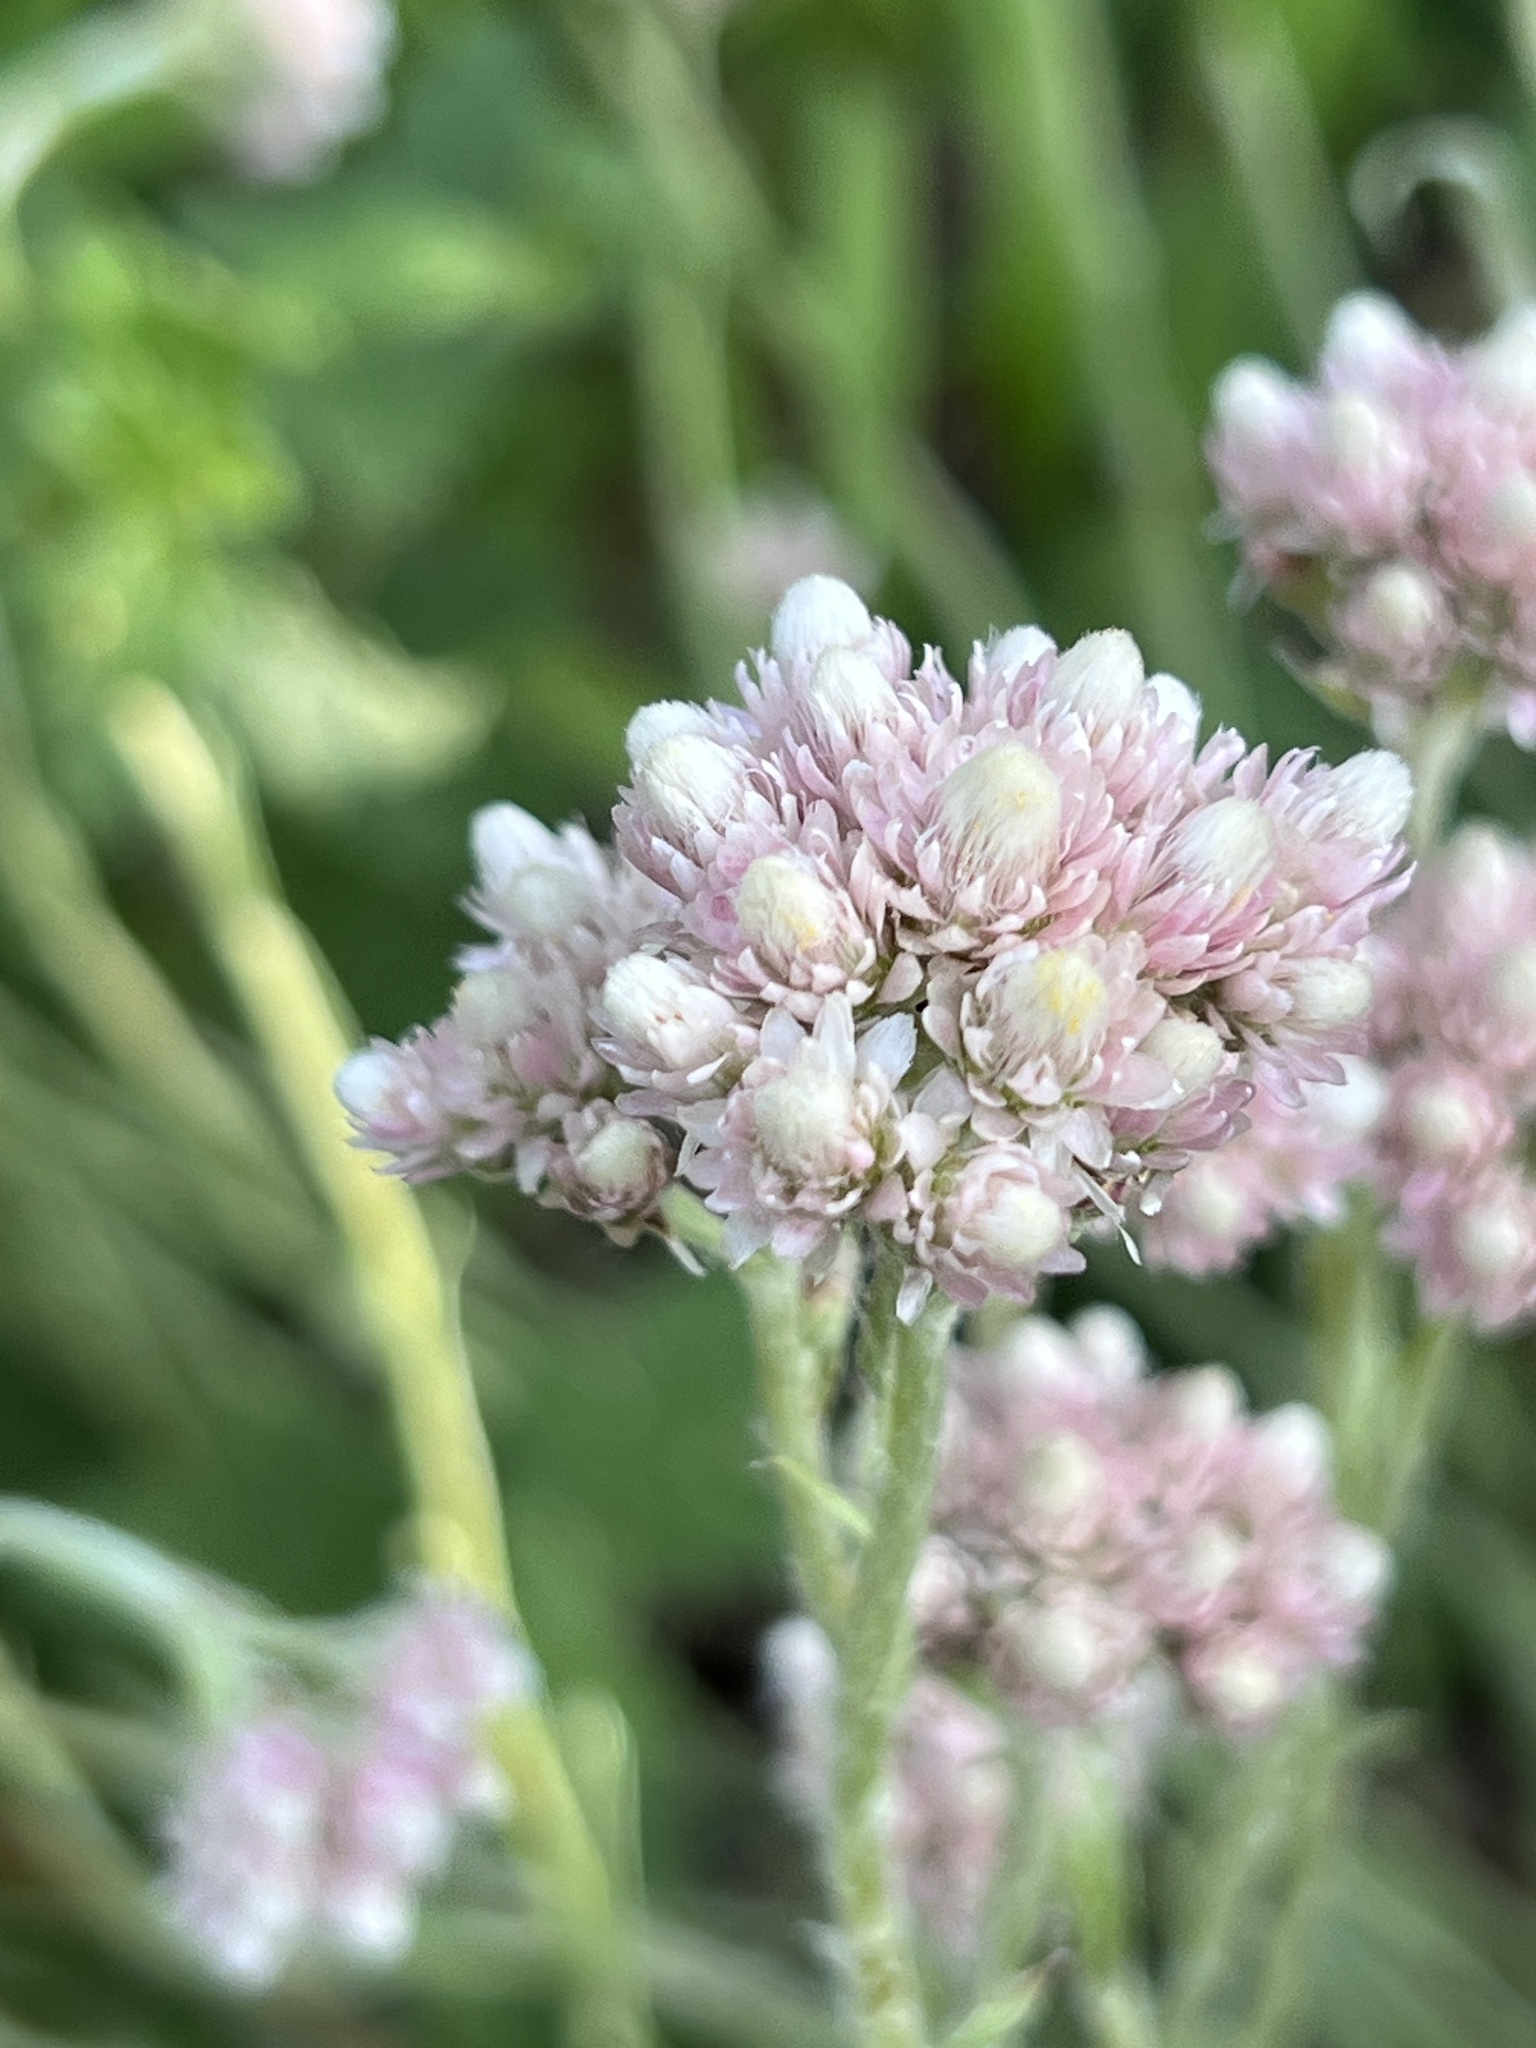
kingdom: Plantae
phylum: Tracheophyta
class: Magnoliopsida
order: Asterales
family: Asteraceae
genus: Antennaria
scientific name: Antennaria rosea
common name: Rosy pussytoes
